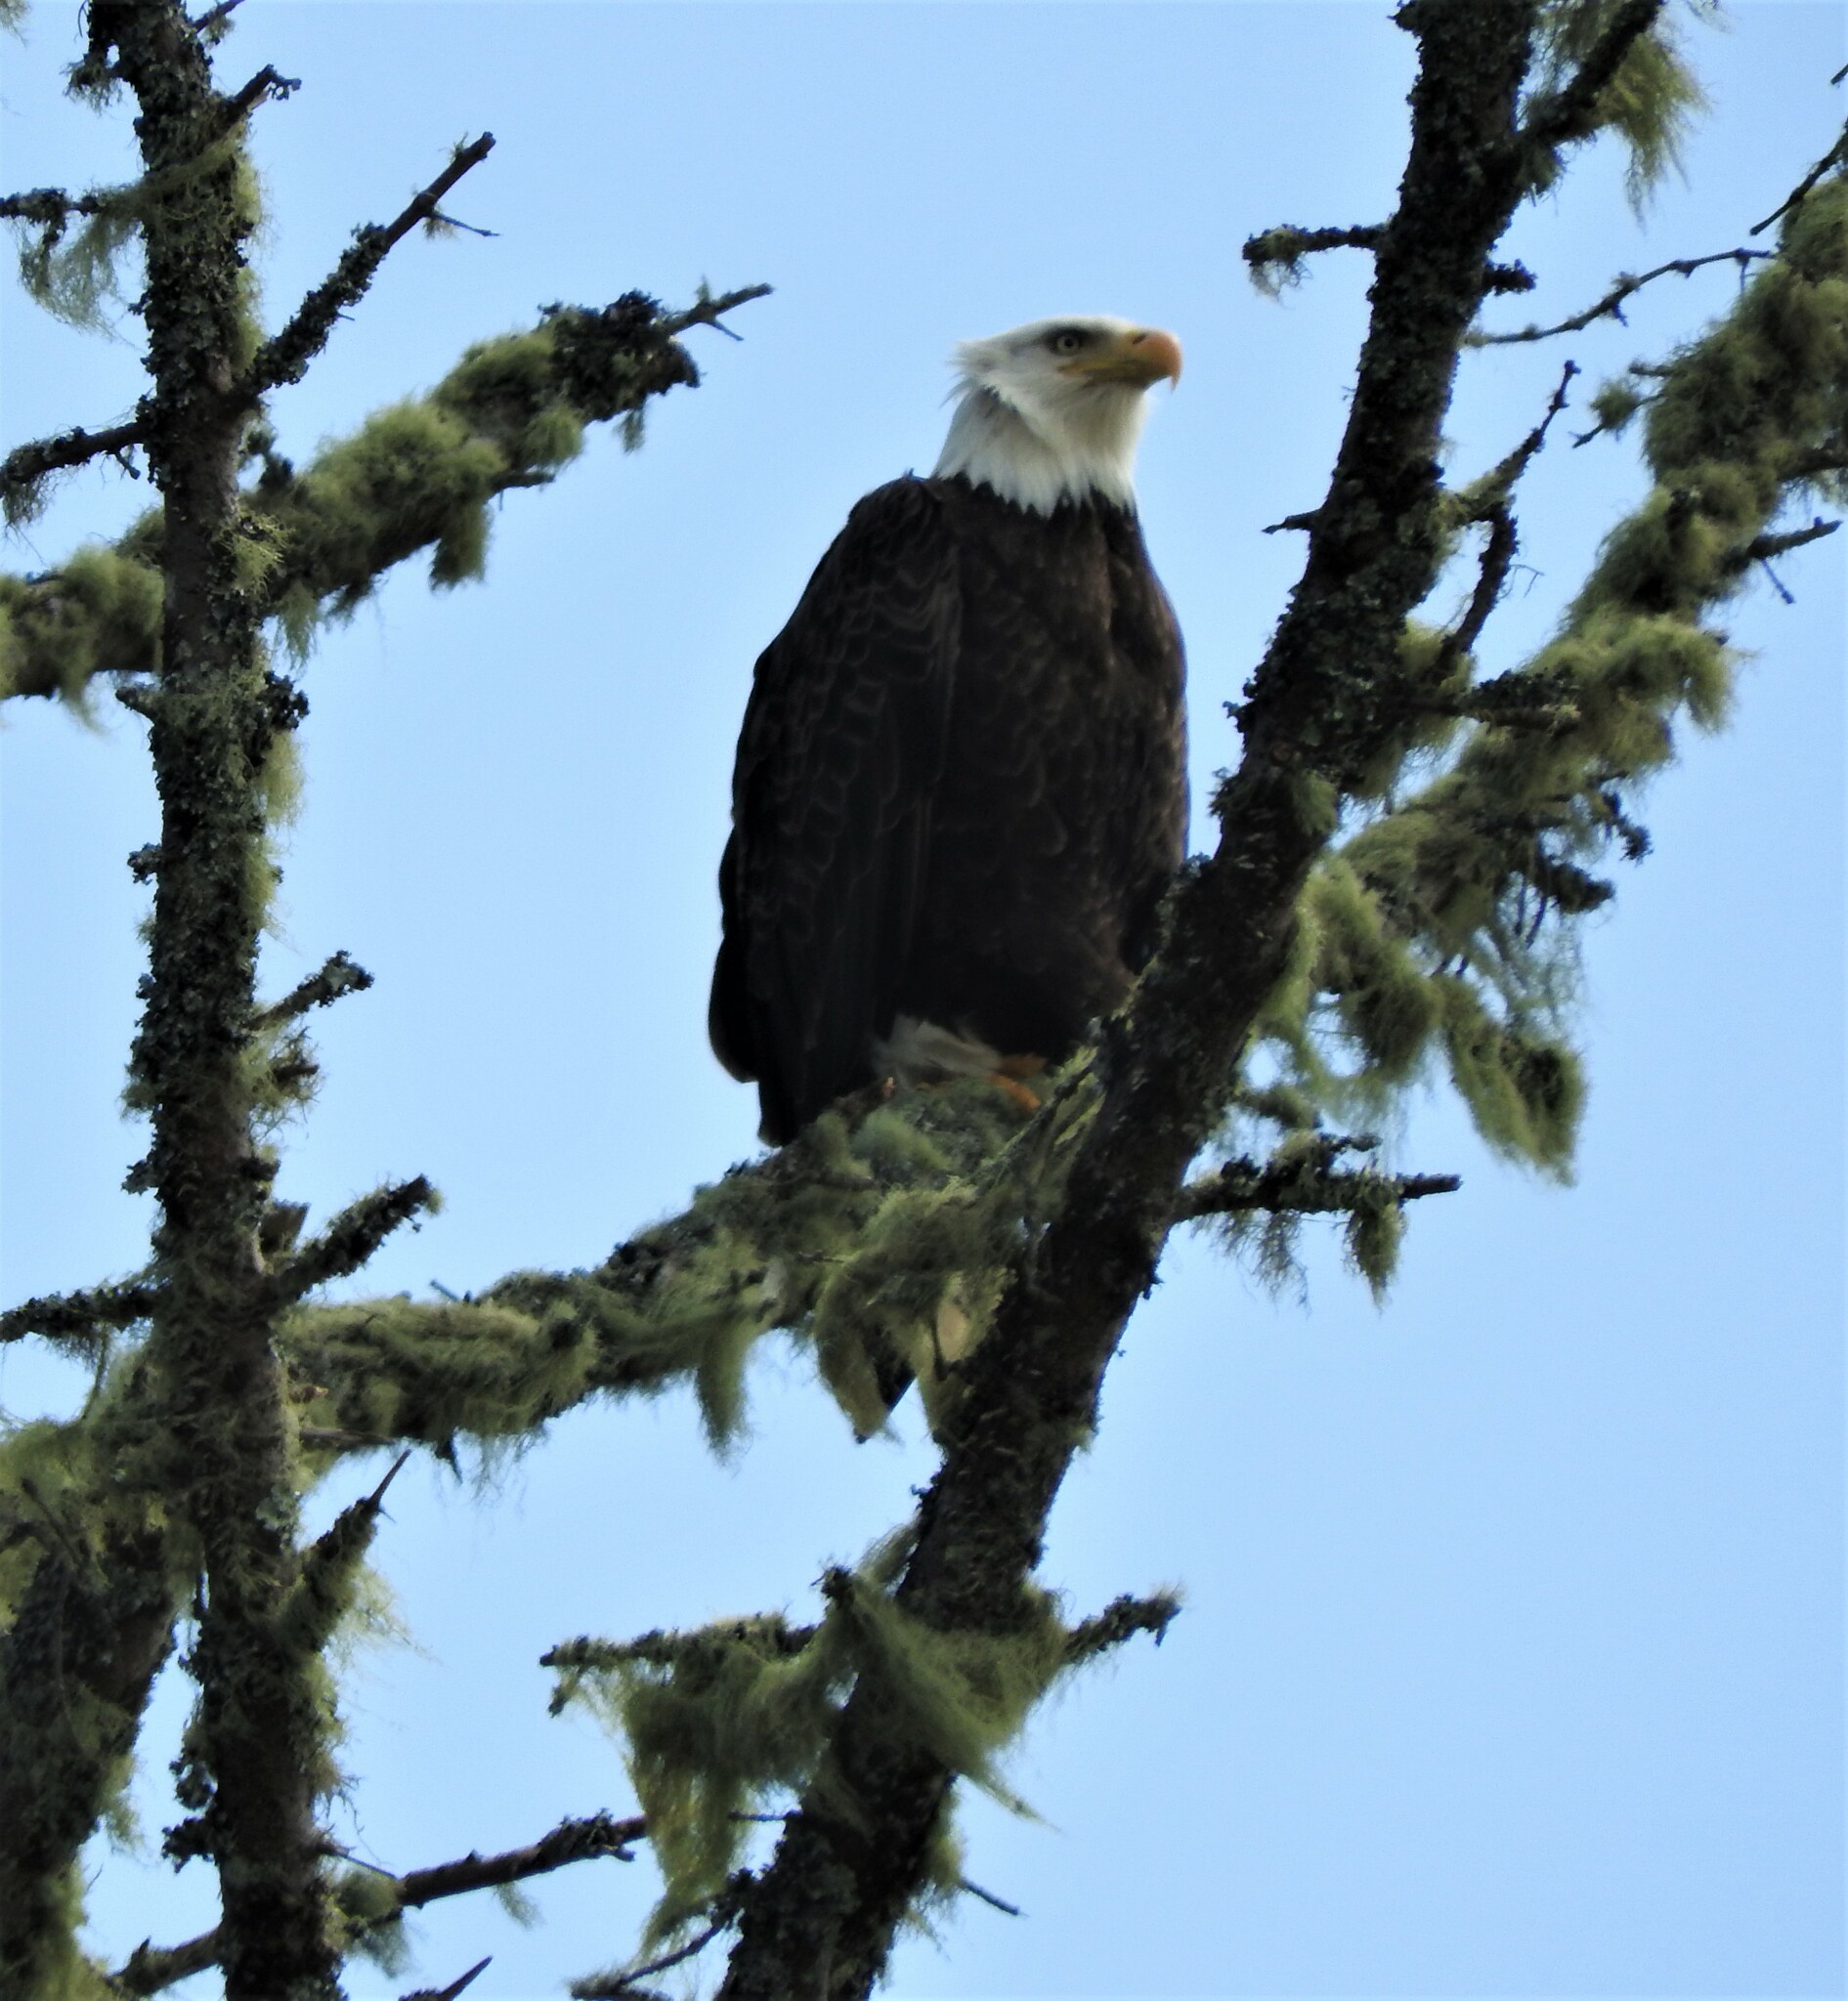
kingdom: Animalia
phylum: Chordata
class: Aves
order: Accipitriformes
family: Accipitridae
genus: Haliaeetus
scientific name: Haliaeetus leucocephalus
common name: Bald eagle
